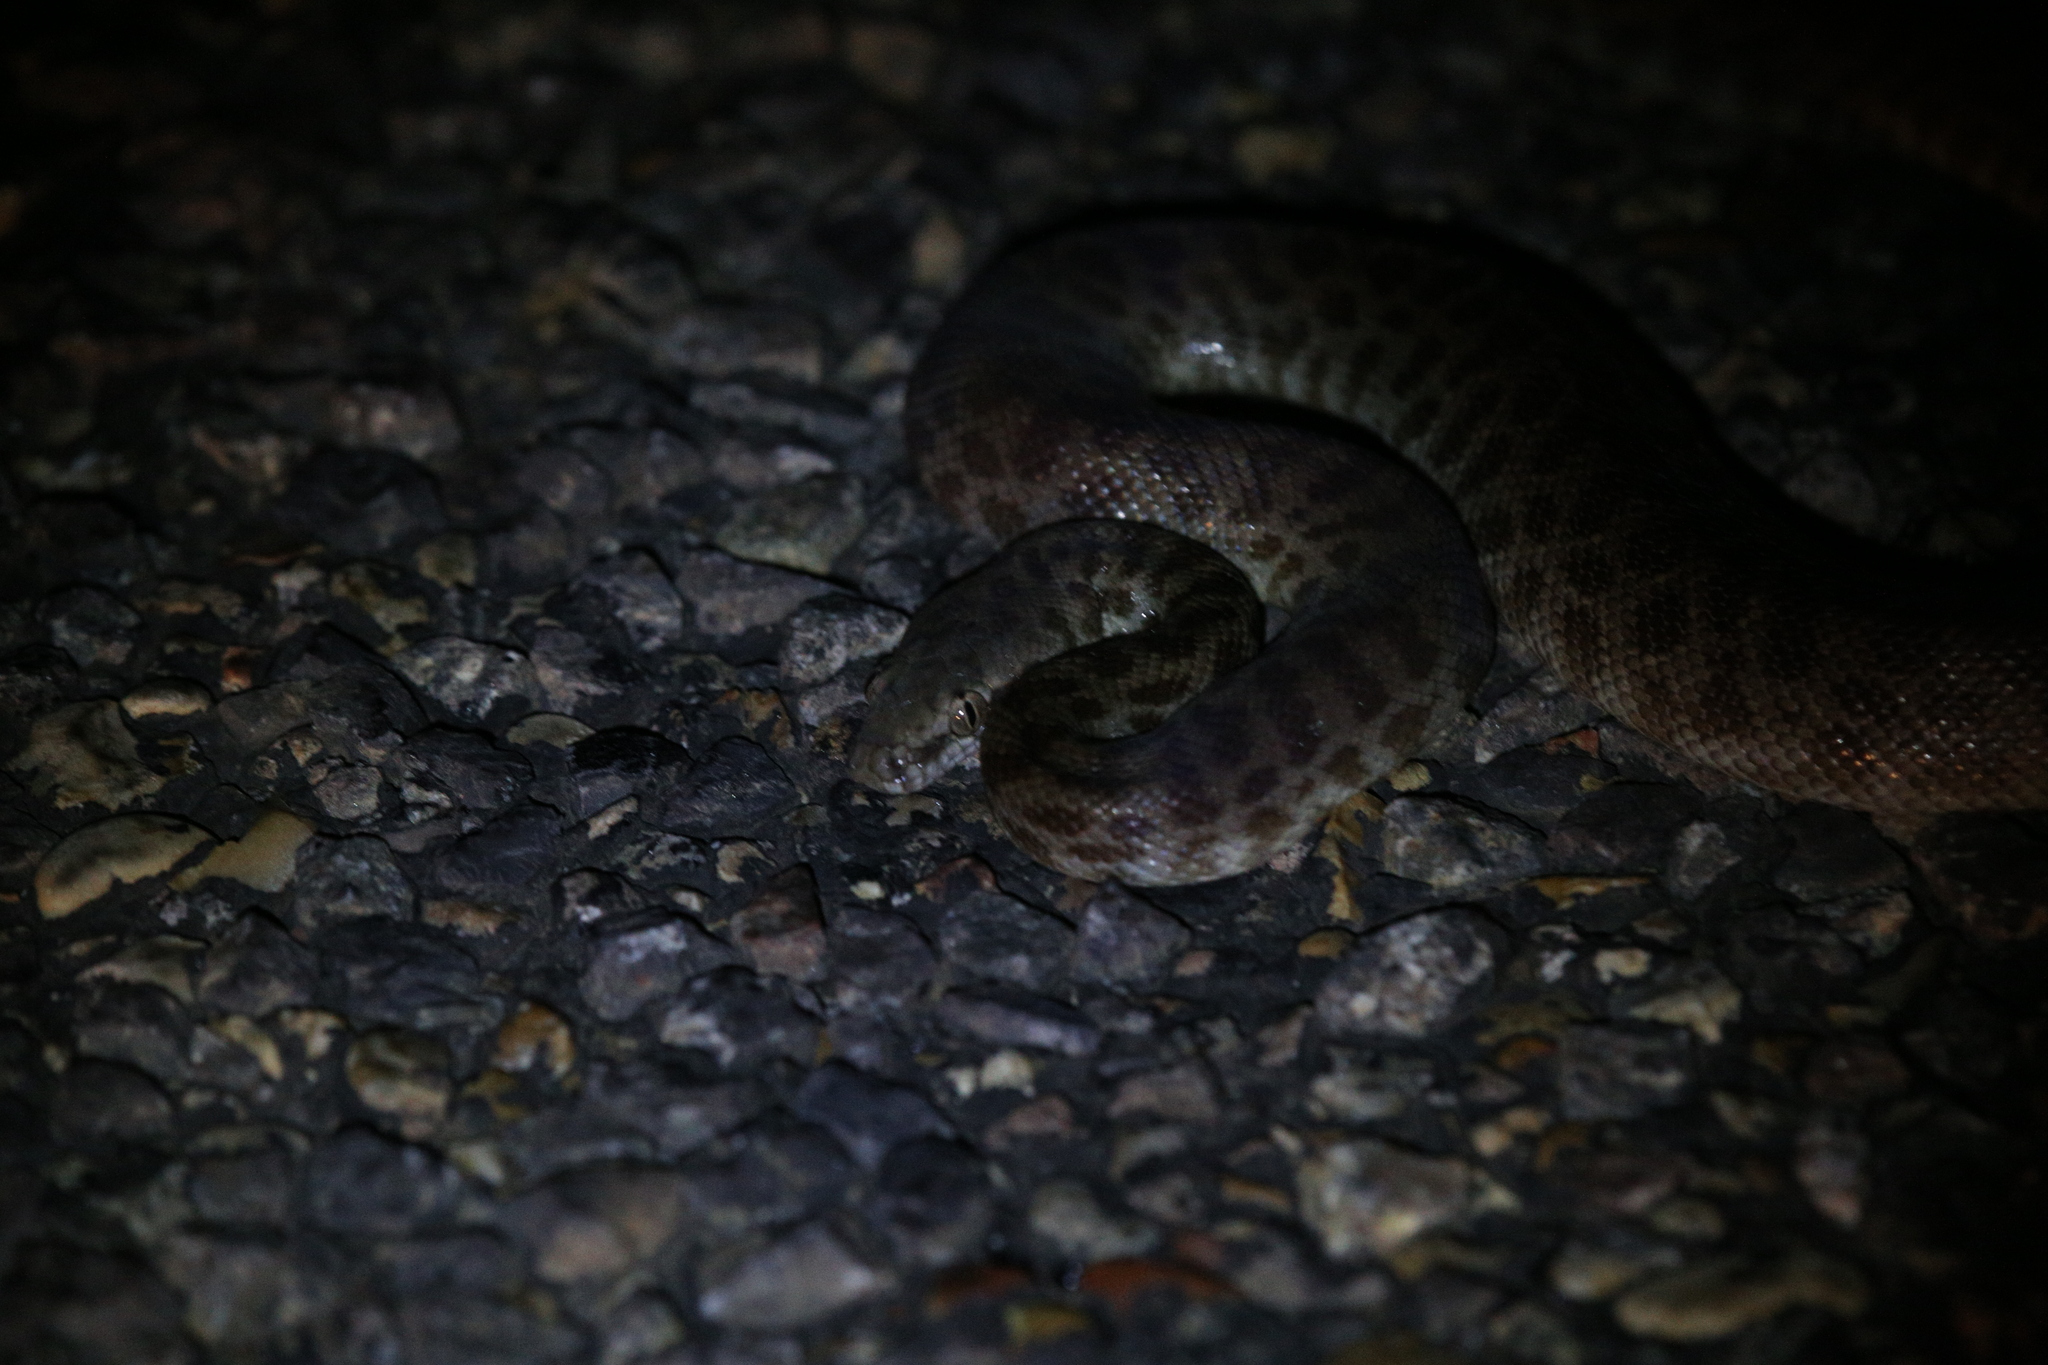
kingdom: Animalia
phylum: Chordata
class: Squamata
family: Pythonidae
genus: Antaresia
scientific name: Antaresia childreni
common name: Children's python
